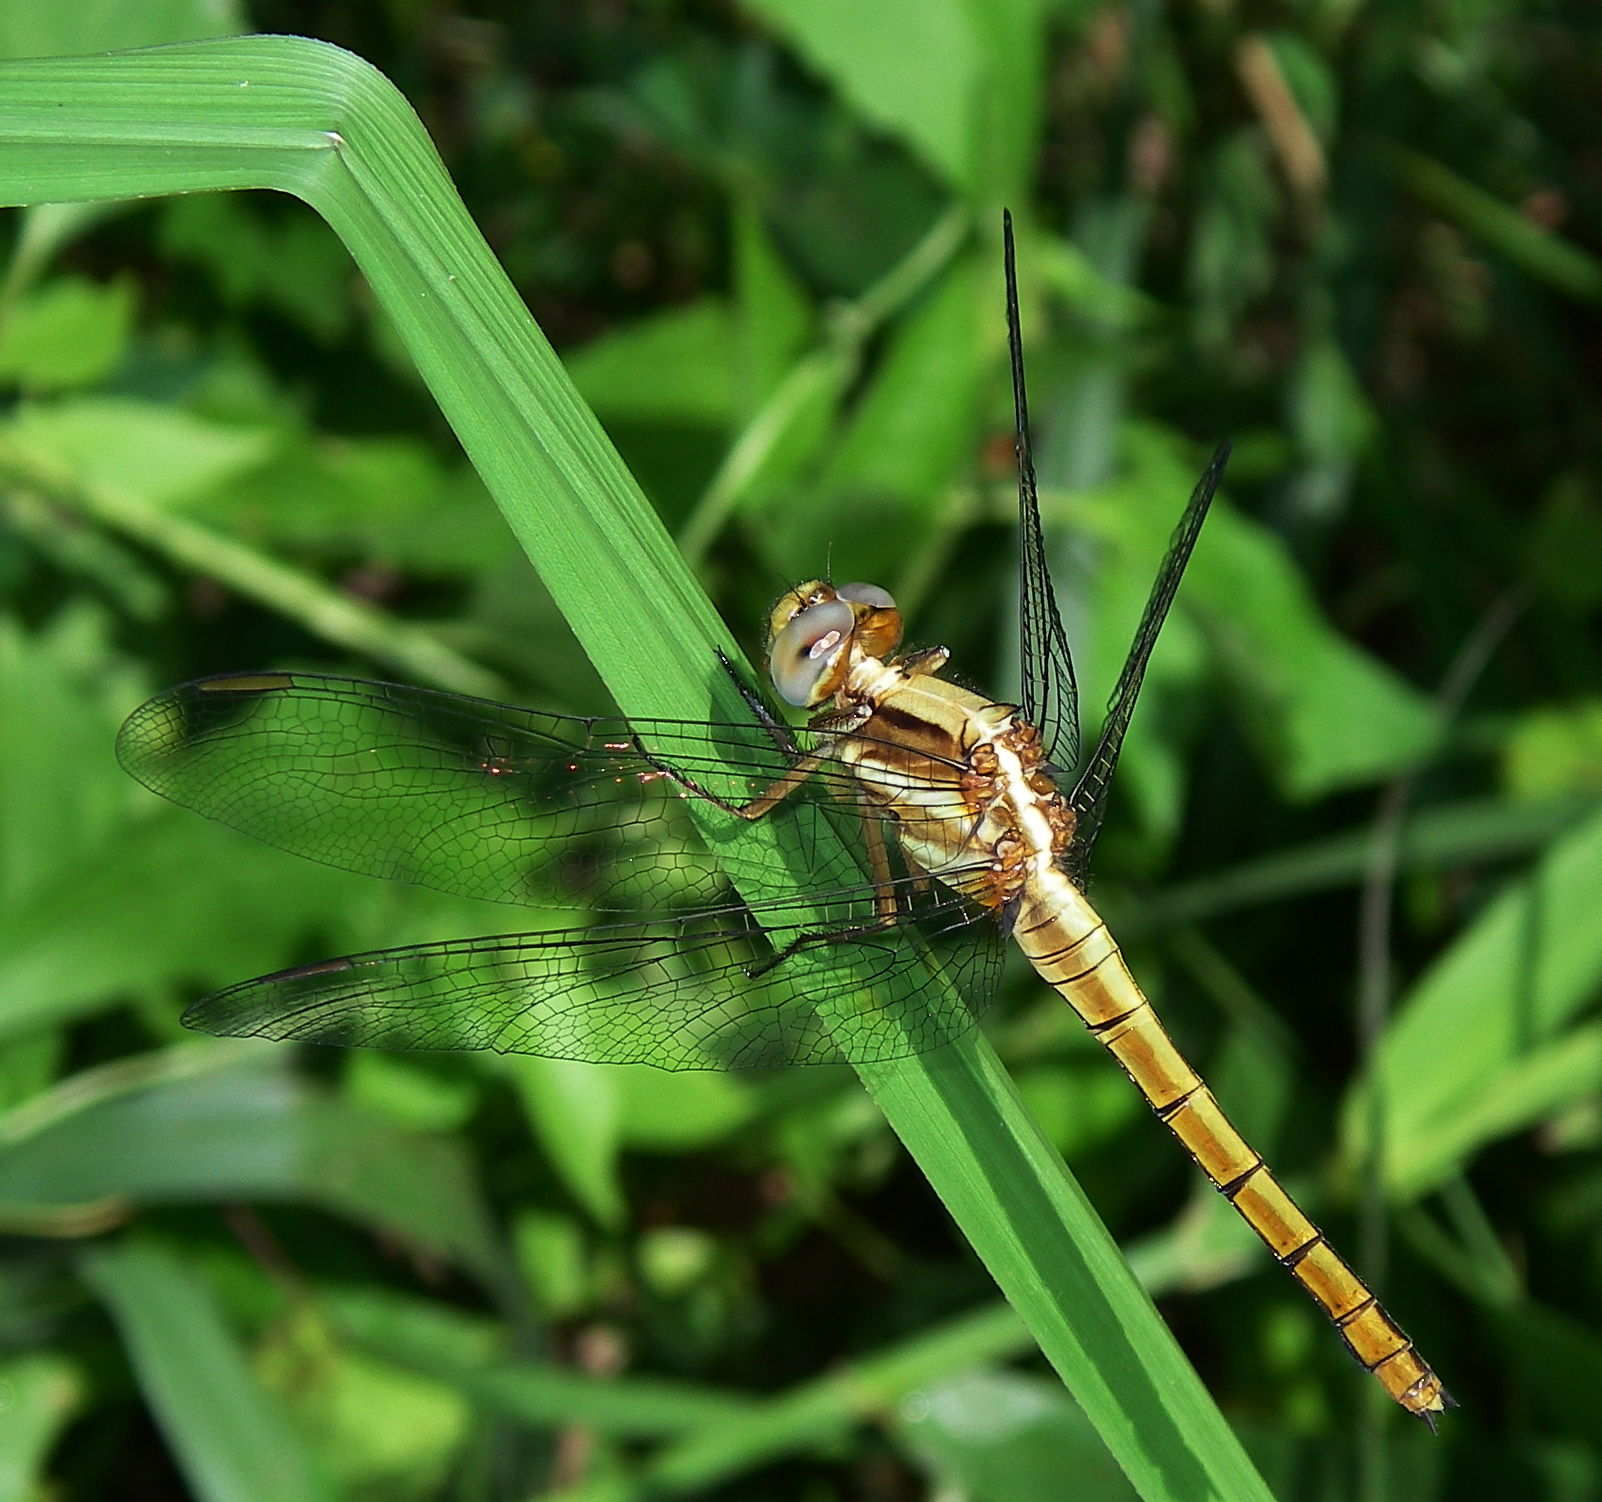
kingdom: Animalia
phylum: Arthropoda
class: Insecta
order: Odonata
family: Libellulidae
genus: Orthetrum
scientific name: Orthetrum glaucum
